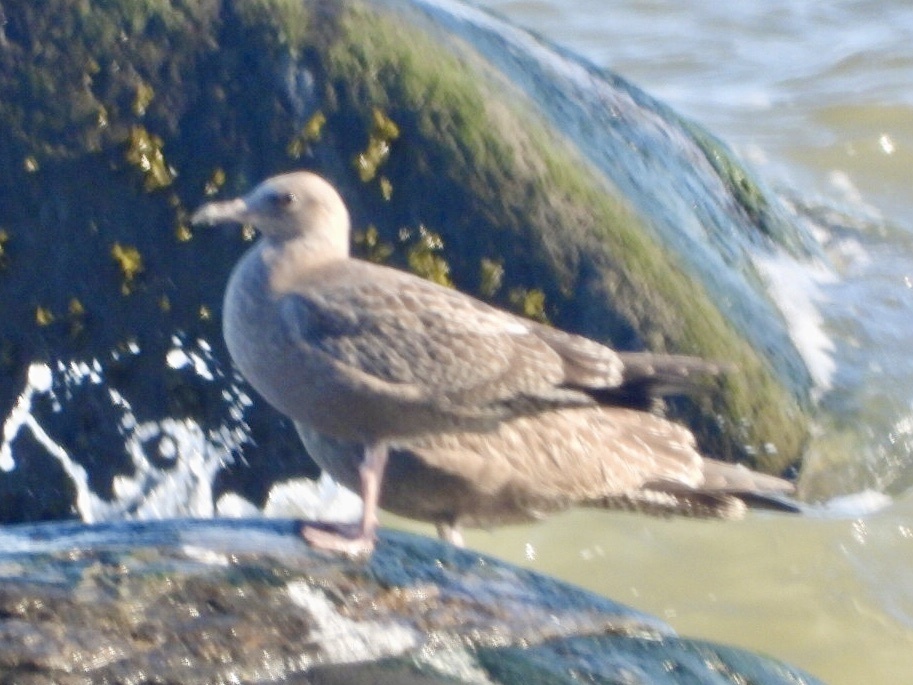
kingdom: Animalia
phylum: Chordata
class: Aves
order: Charadriiformes
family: Laridae
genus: Larus
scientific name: Larus argentatus
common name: Herring gull
